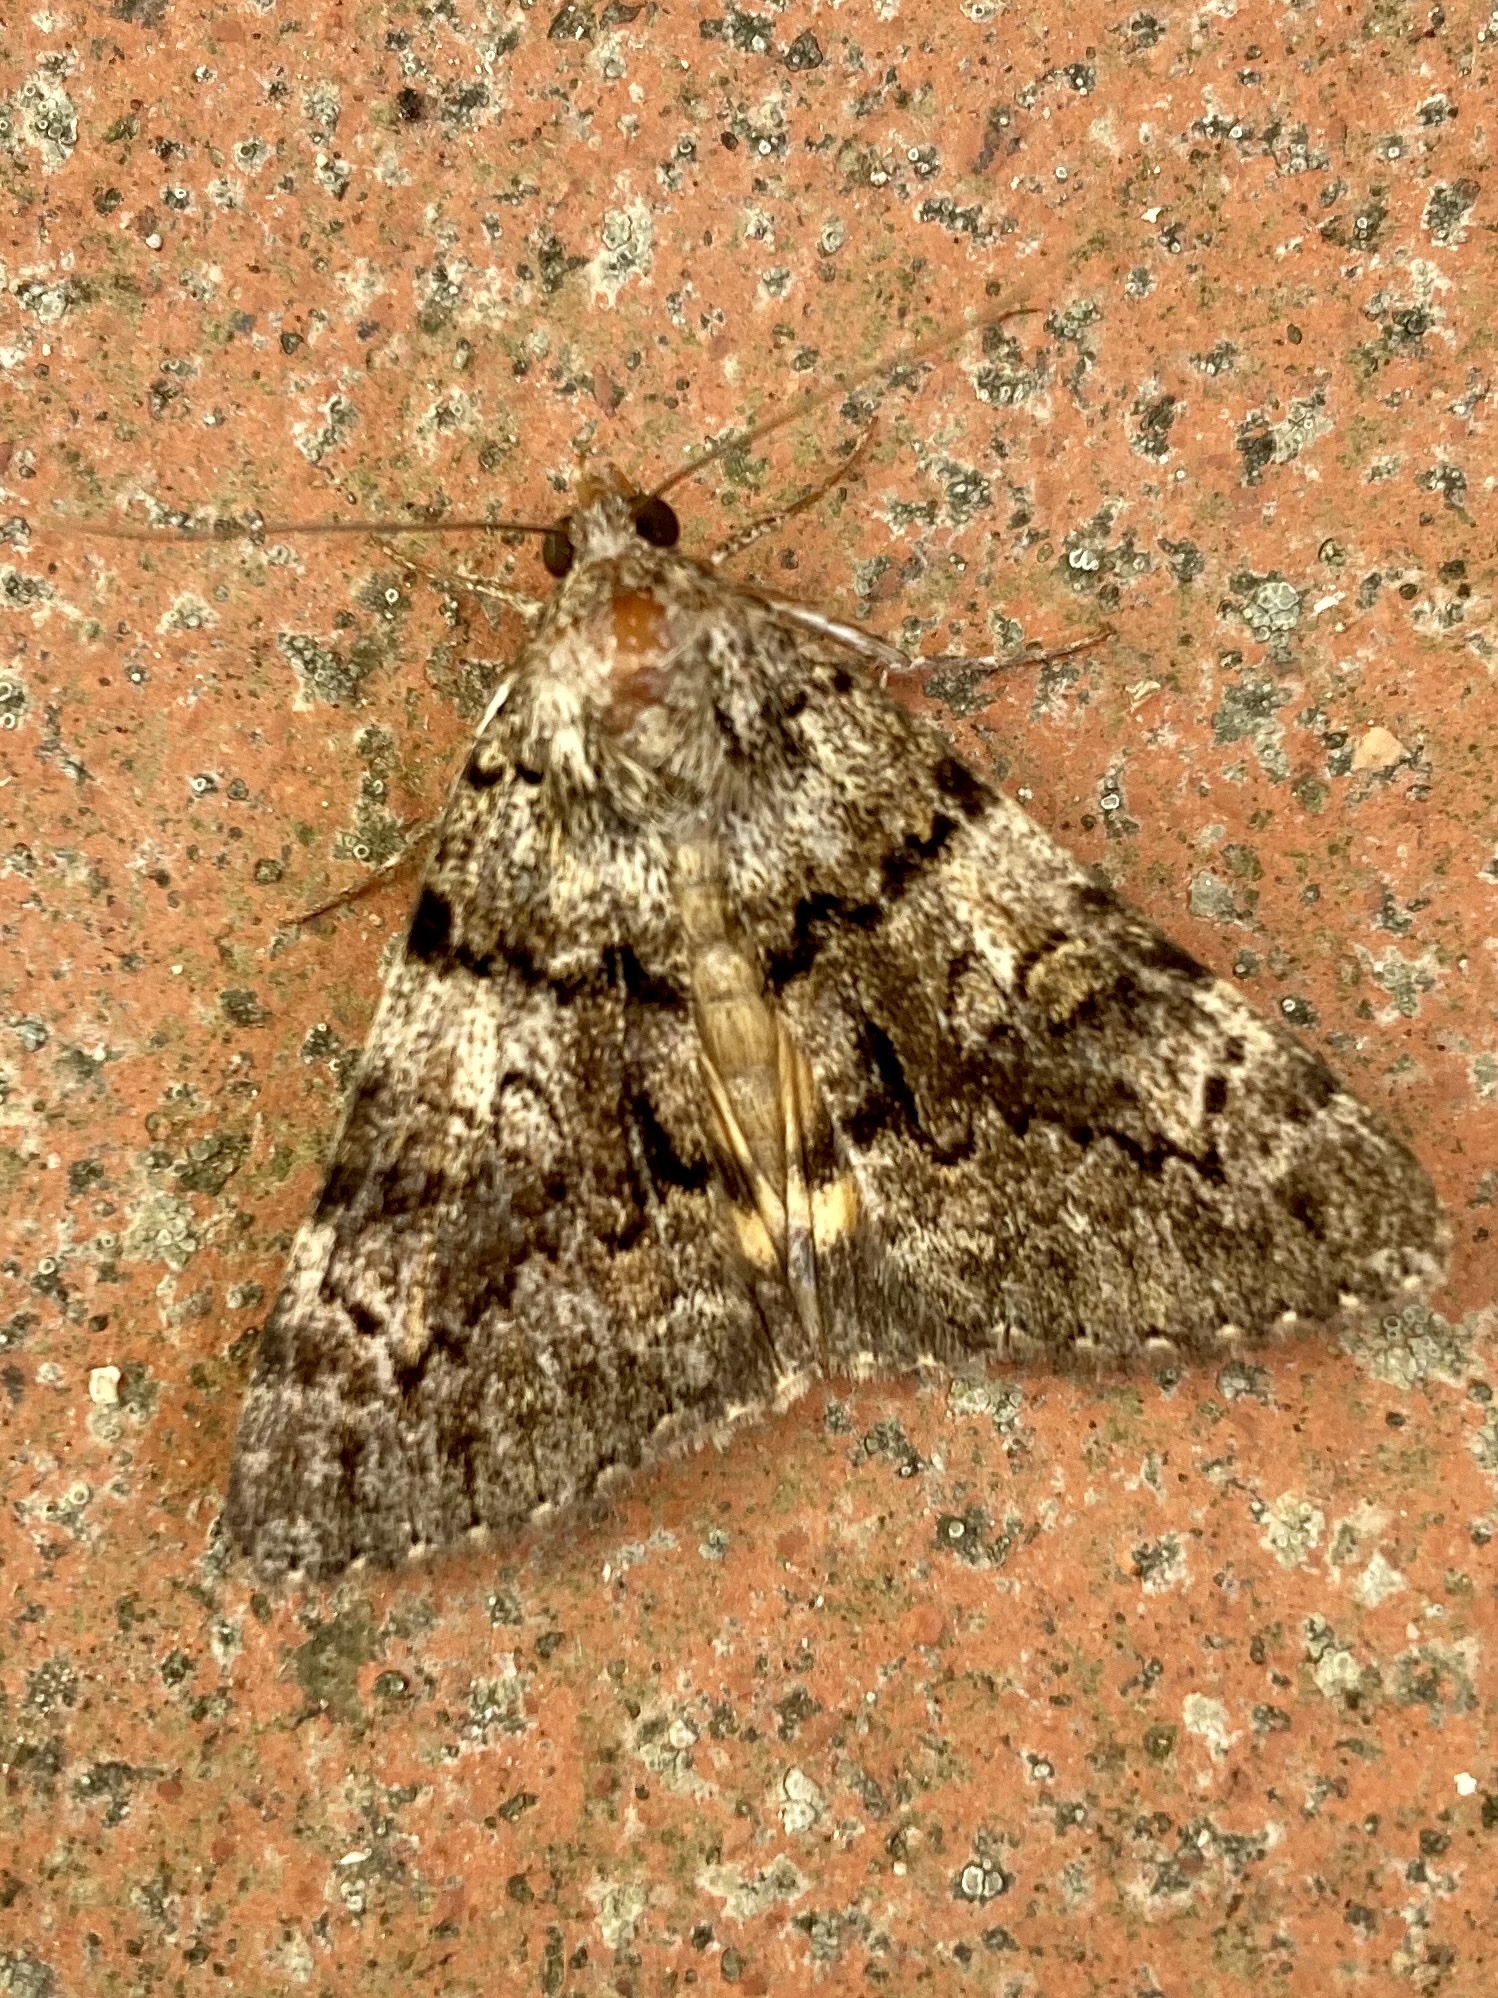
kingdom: Animalia
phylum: Arthropoda
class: Insecta
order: Lepidoptera
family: Erebidae
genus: Catocala
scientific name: Catocala nymphagoga
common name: Oak yellow underwing
